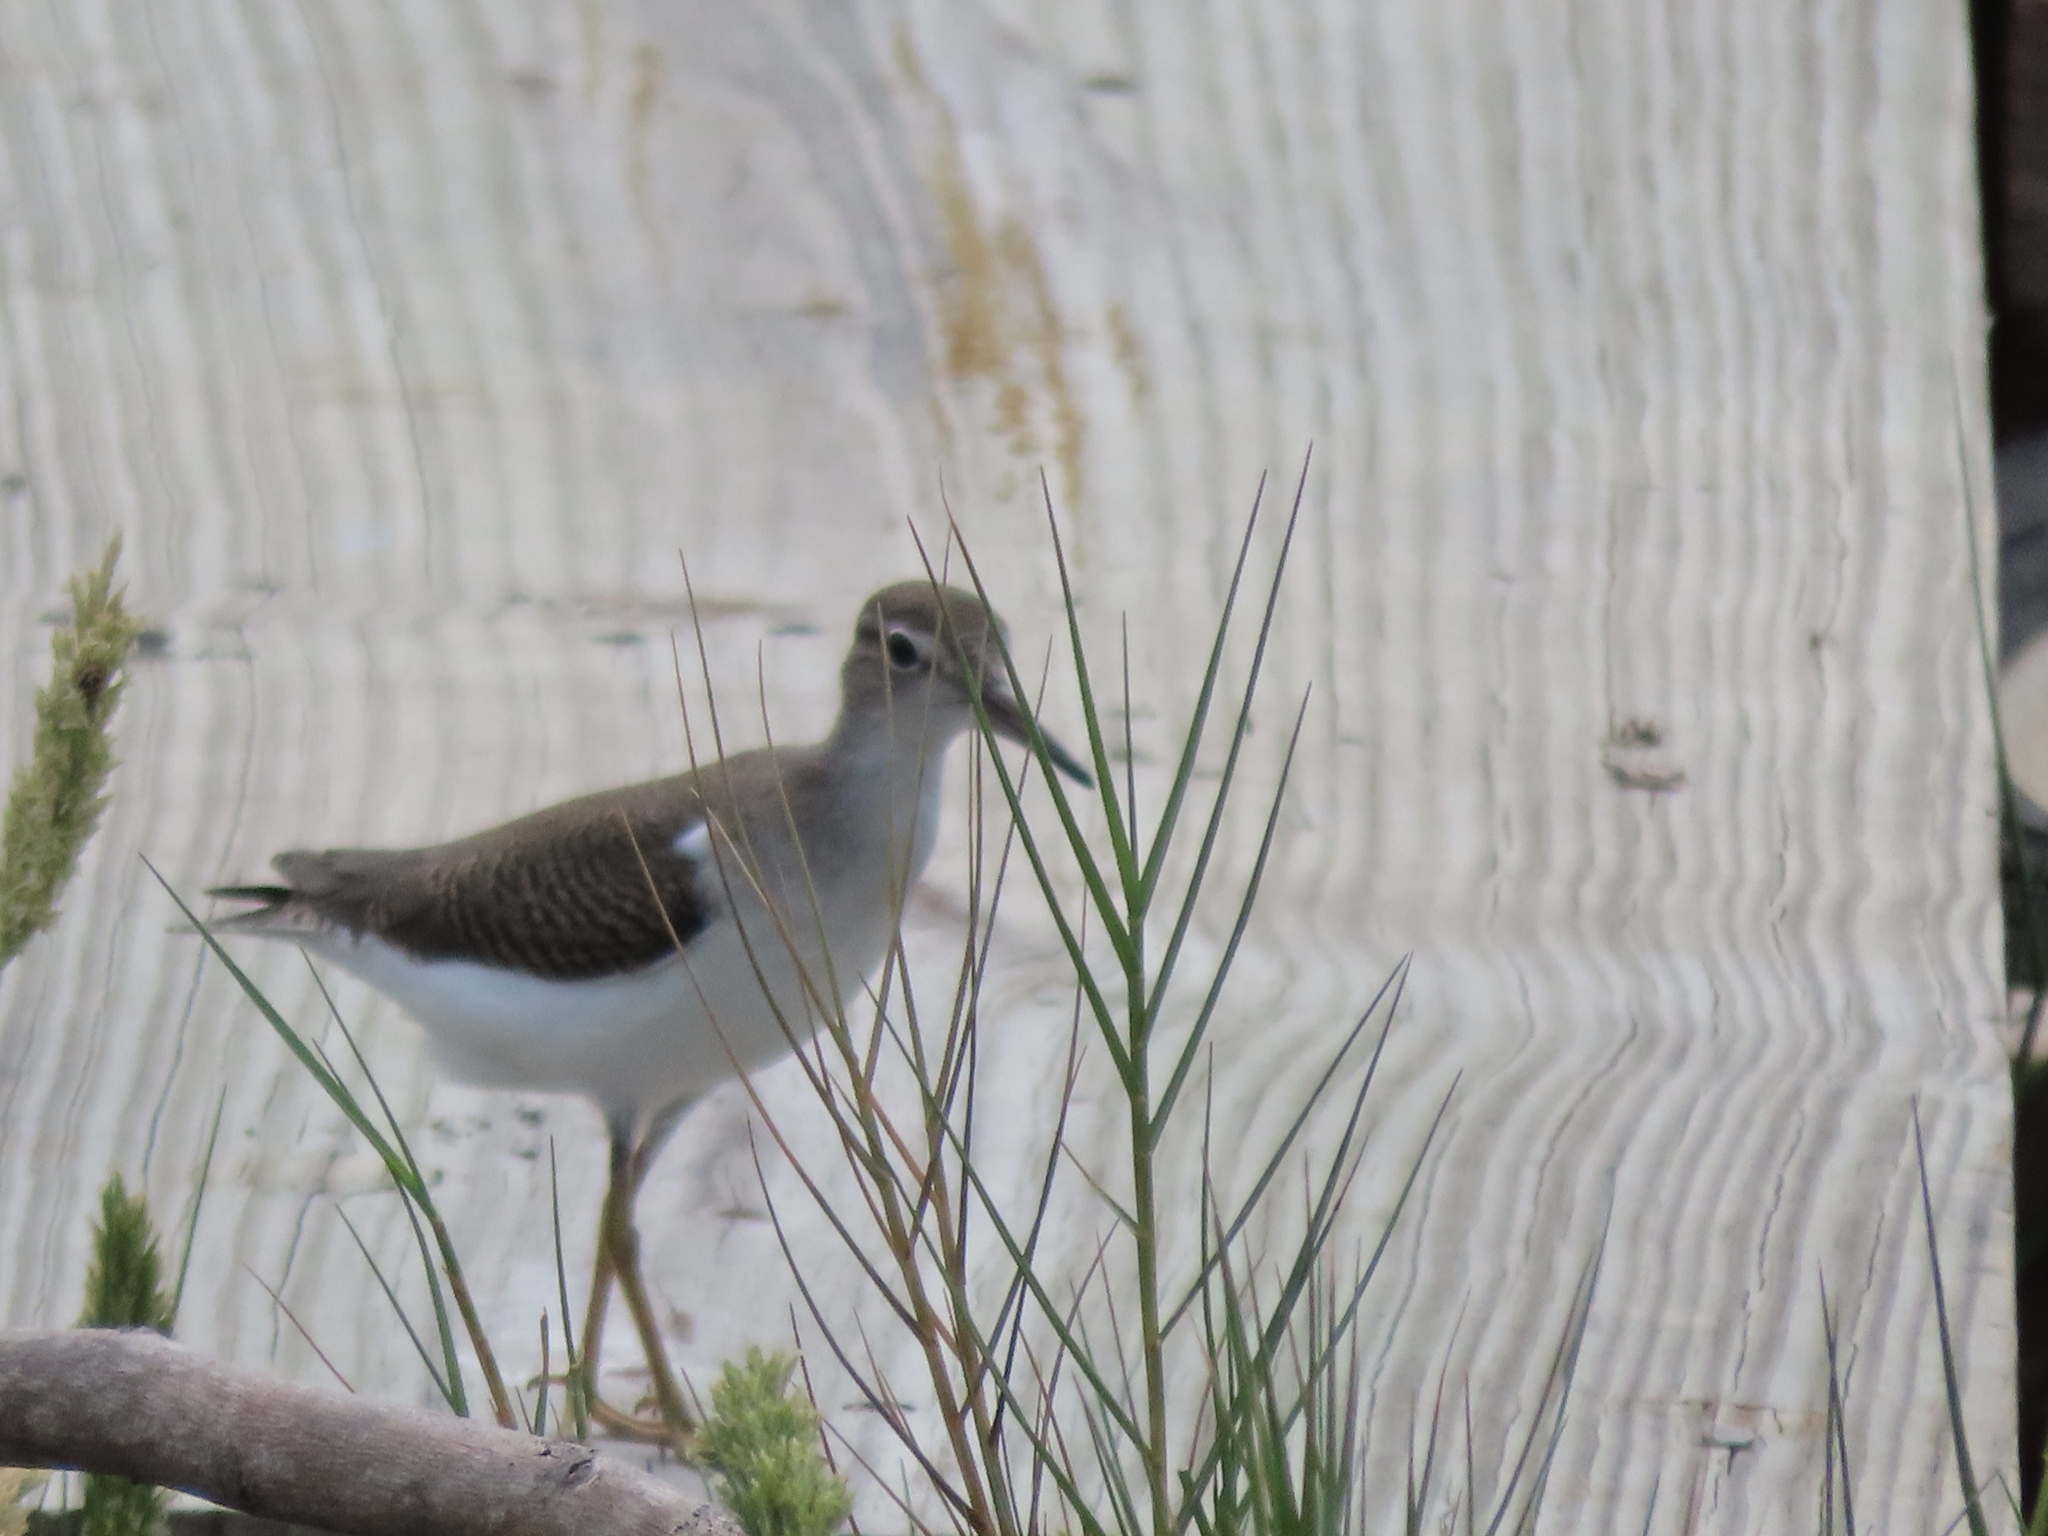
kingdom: Animalia
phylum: Chordata
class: Aves
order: Charadriiformes
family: Scolopacidae
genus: Actitis
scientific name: Actitis macularius
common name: Spotted sandpiper
